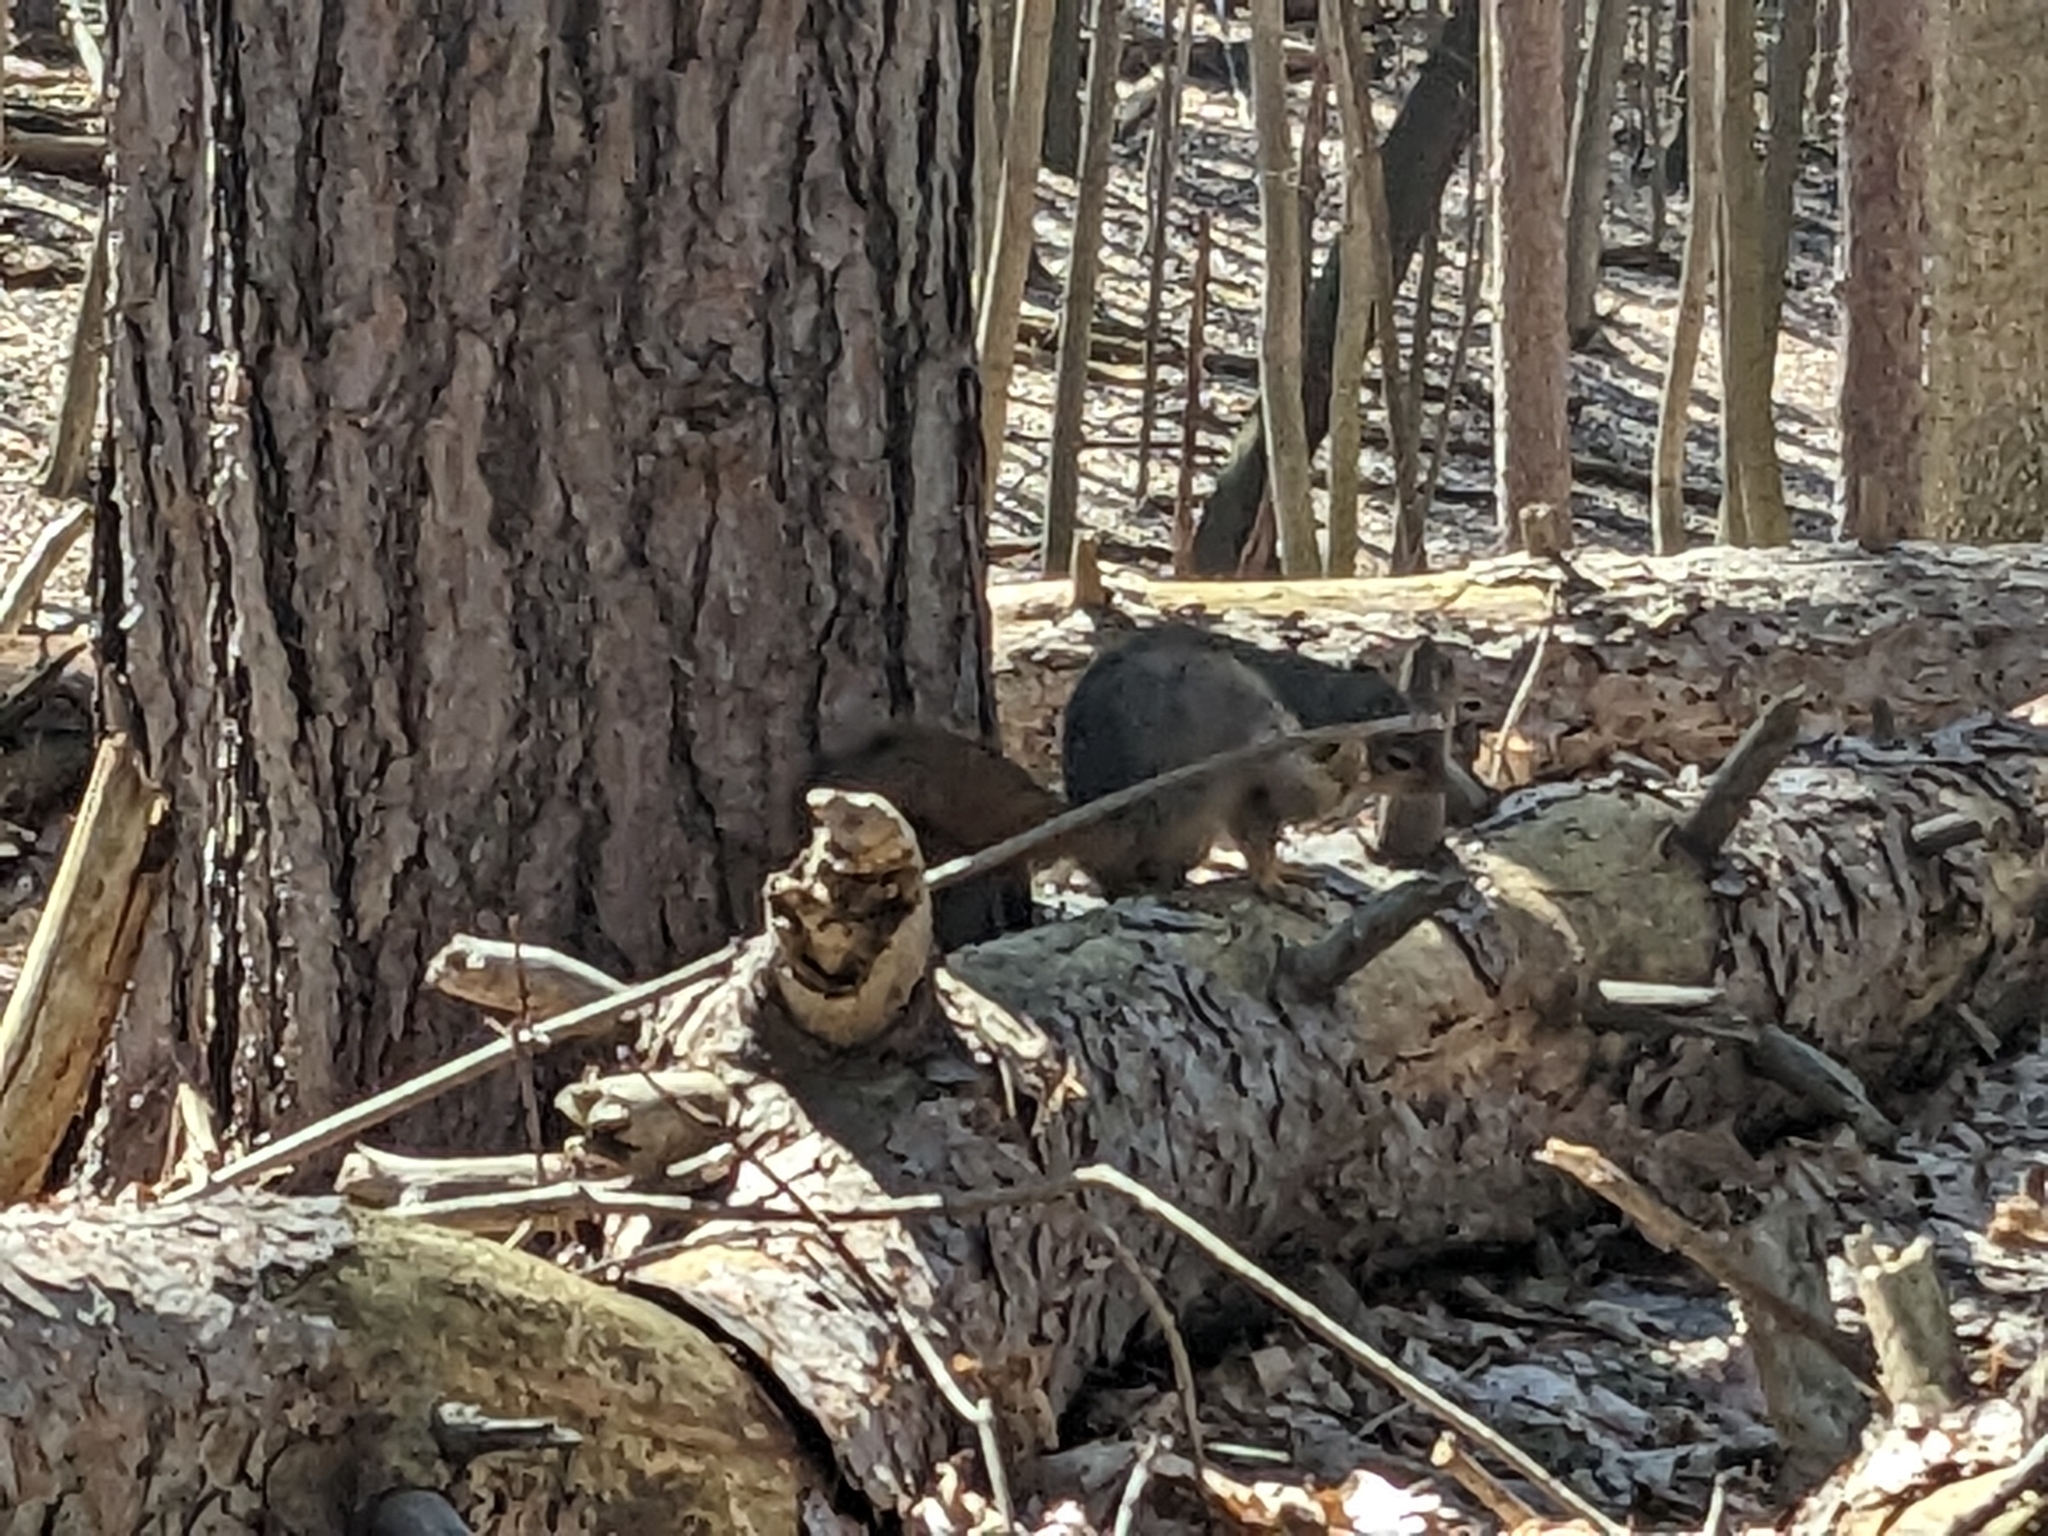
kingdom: Animalia
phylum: Chordata
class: Mammalia
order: Rodentia
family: Sciuridae
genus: Sciurus
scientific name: Sciurus niger
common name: Fox squirrel
